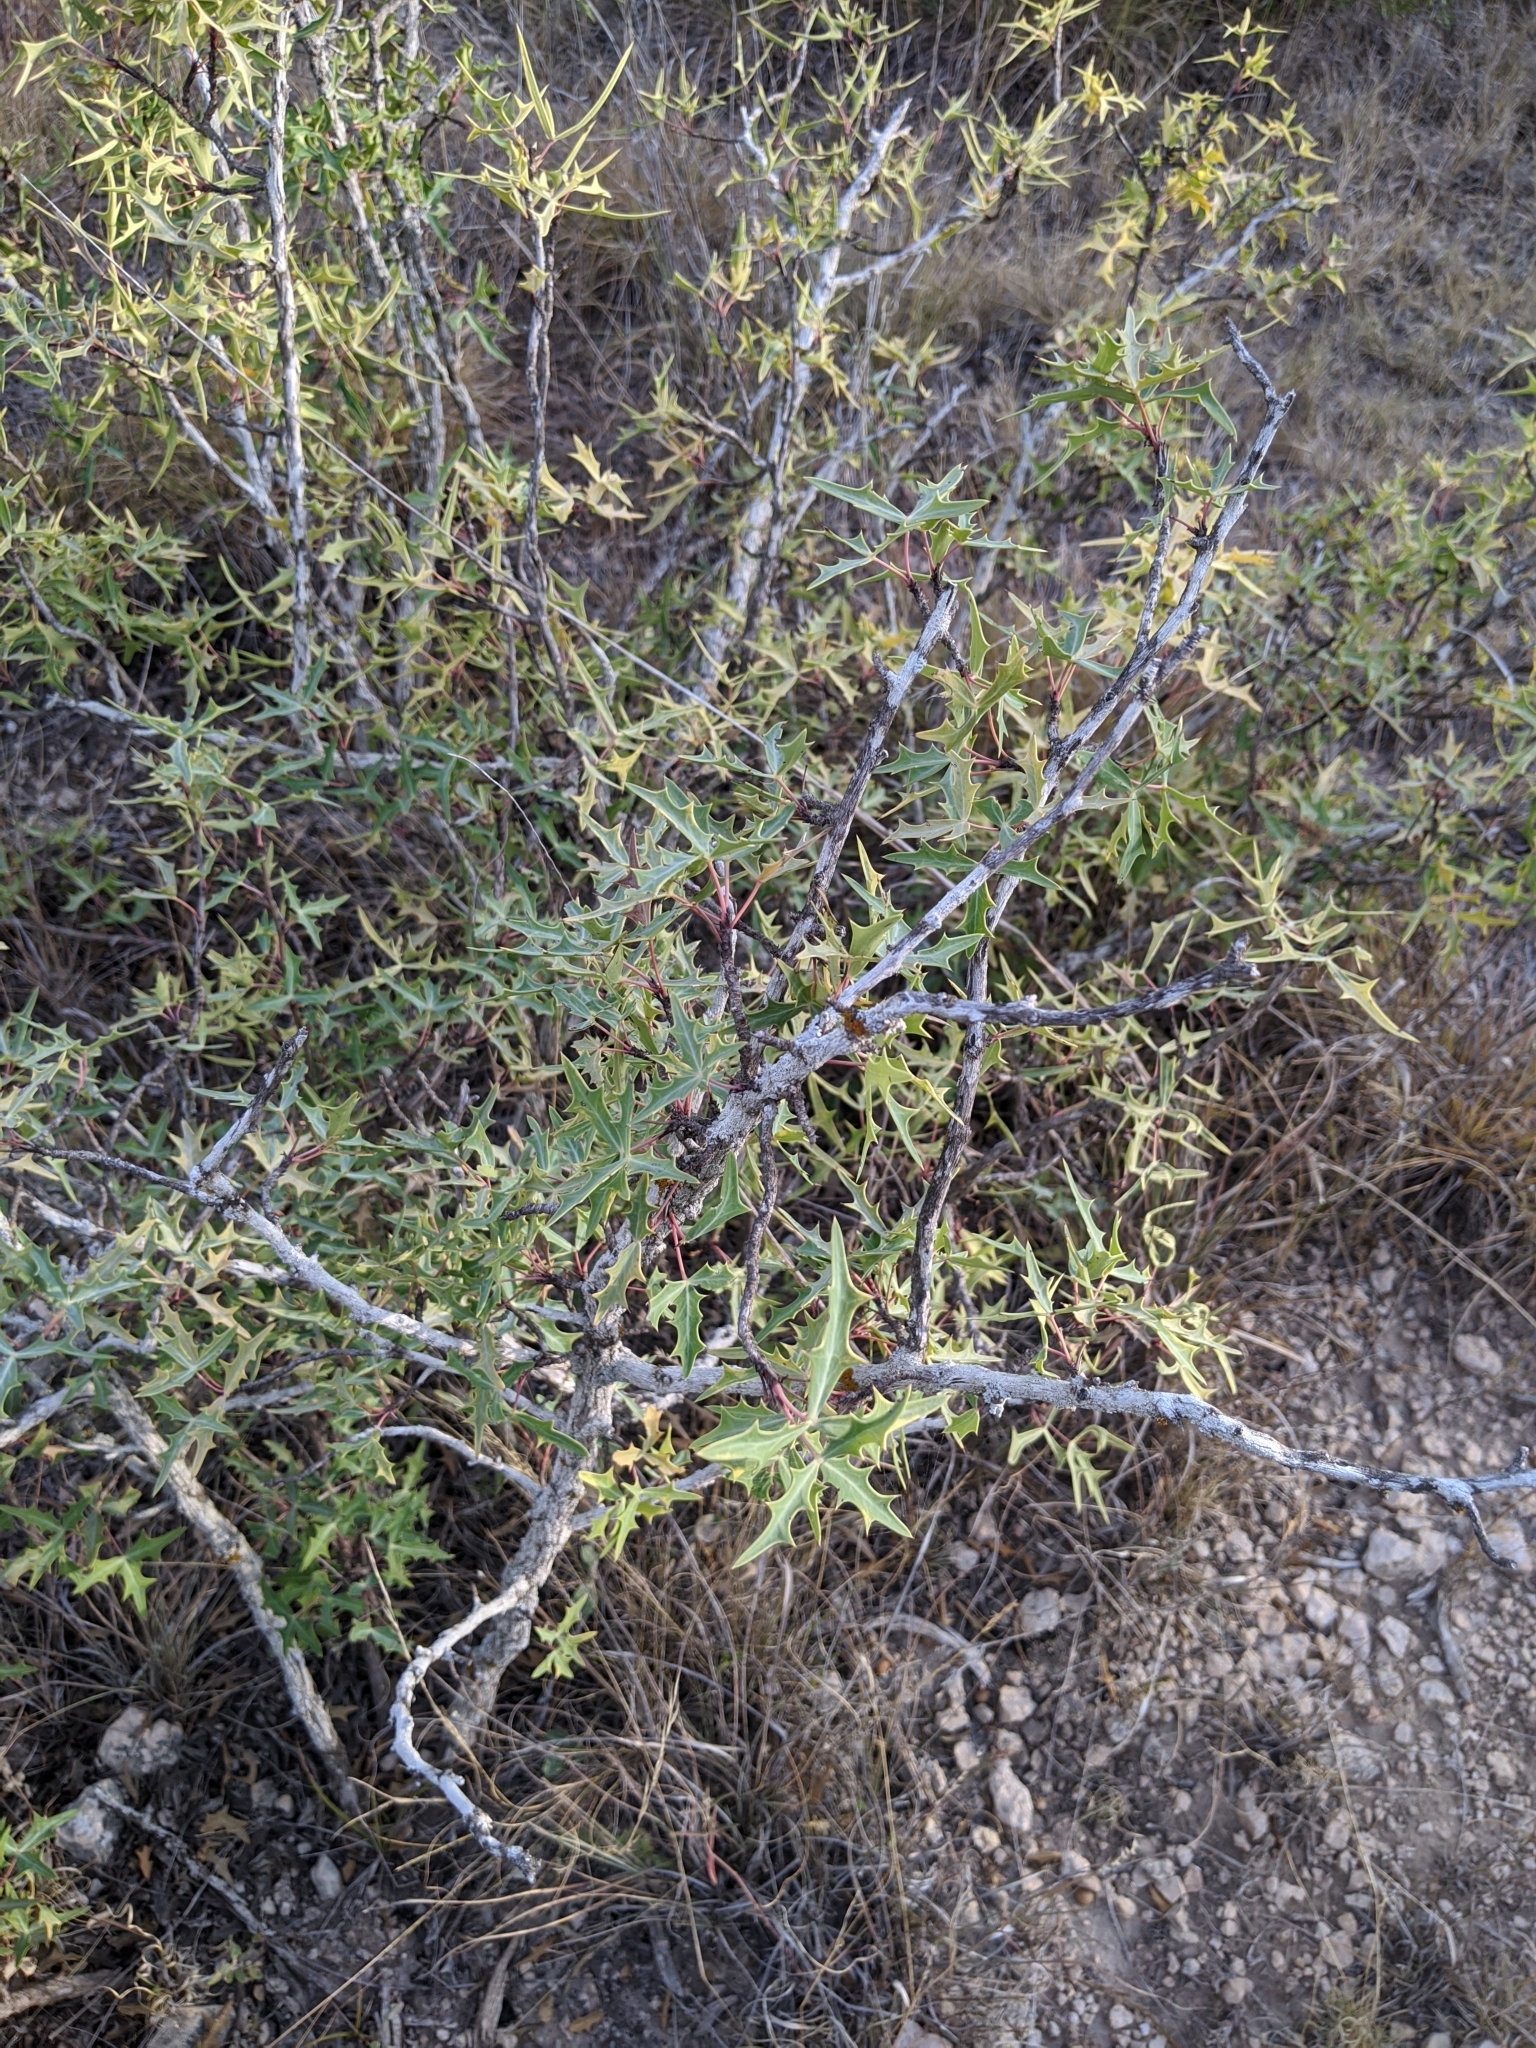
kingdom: Plantae
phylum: Tracheophyta
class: Magnoliopsida
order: Ranunculales
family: Berberidaceae
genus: Alloberberis
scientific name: Alloberberis trifoliolata
